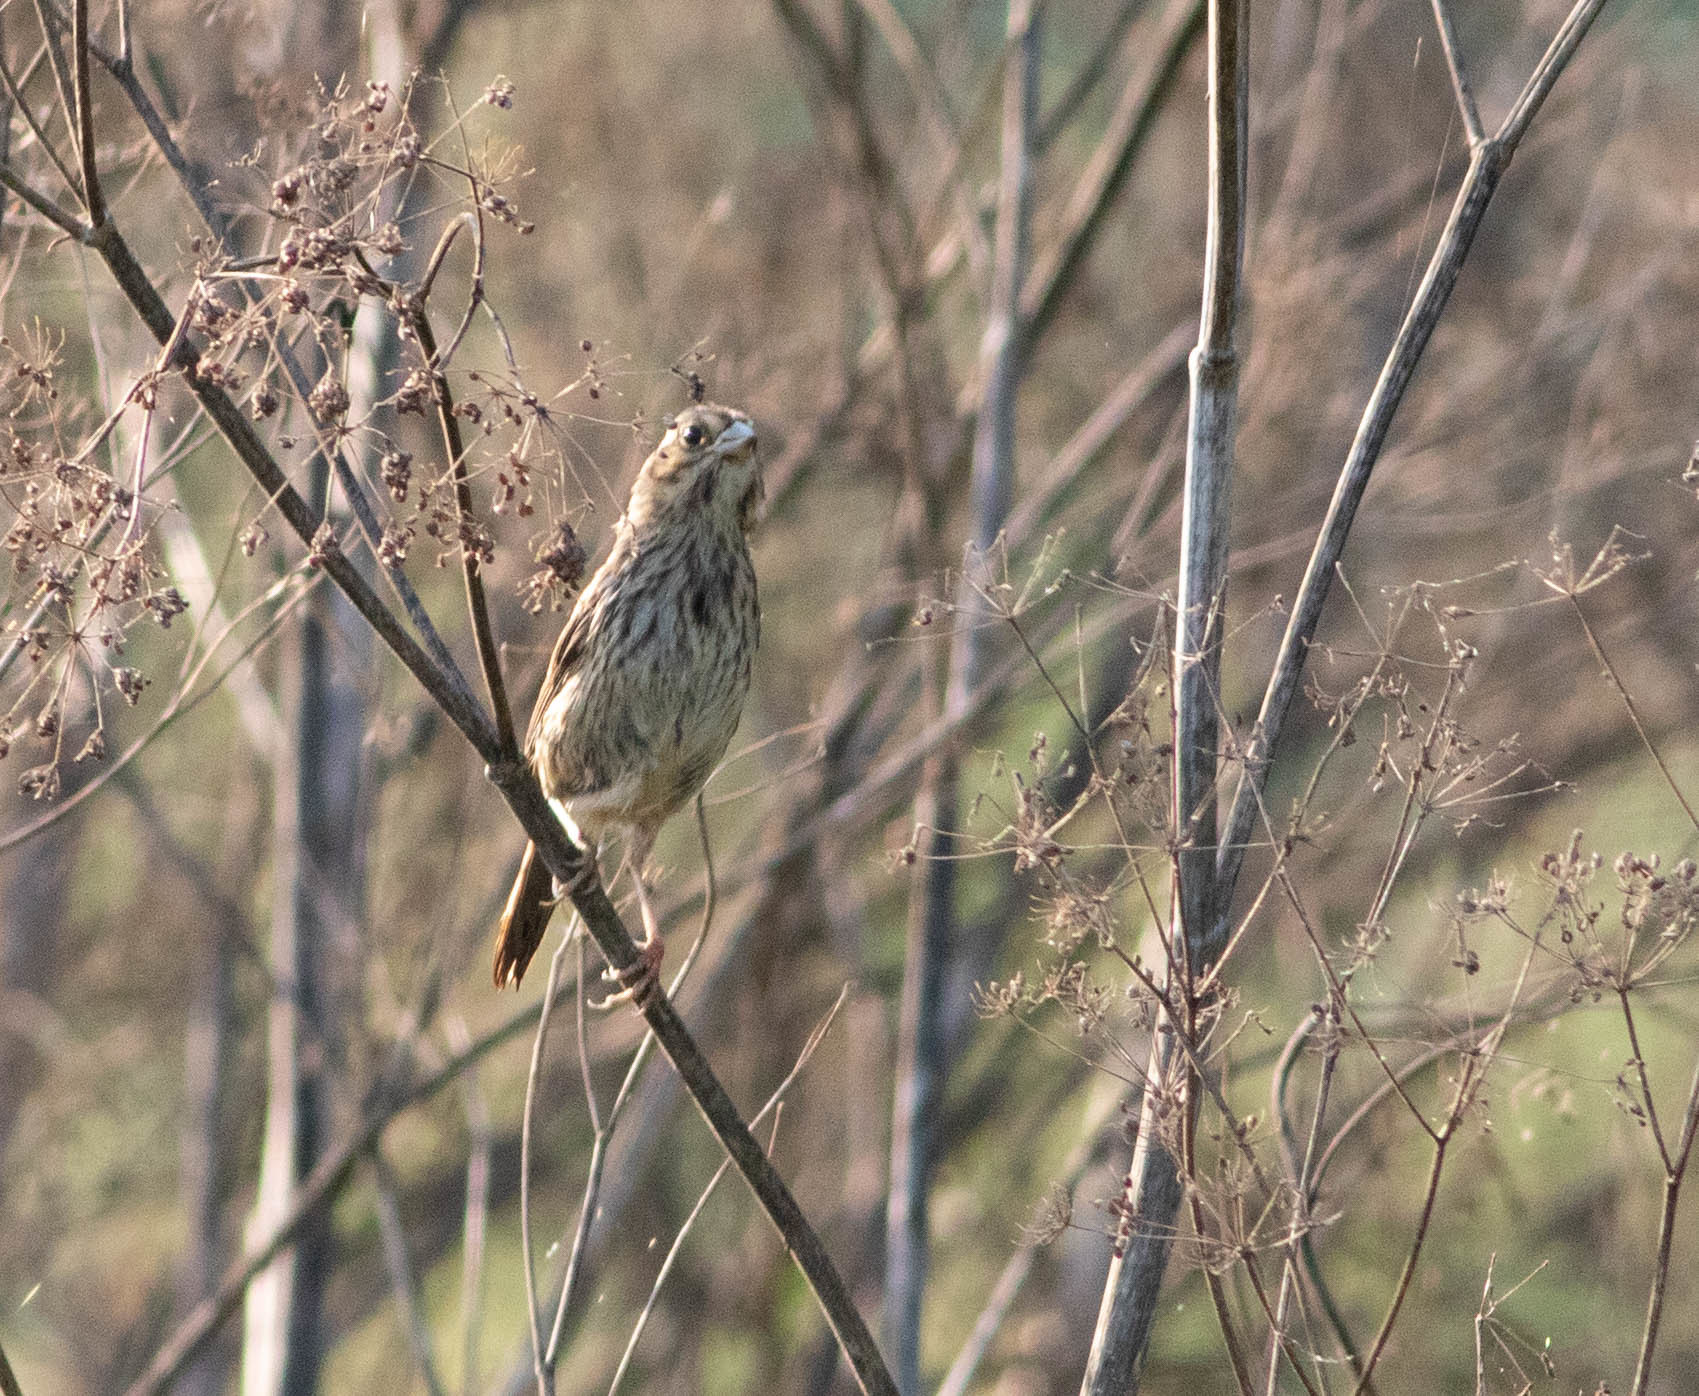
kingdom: Animalia
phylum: Chordata
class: Aves
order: Passeriformes
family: Passerellidae
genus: Melospiza
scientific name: Melospiza melodia
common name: Song sparrow
